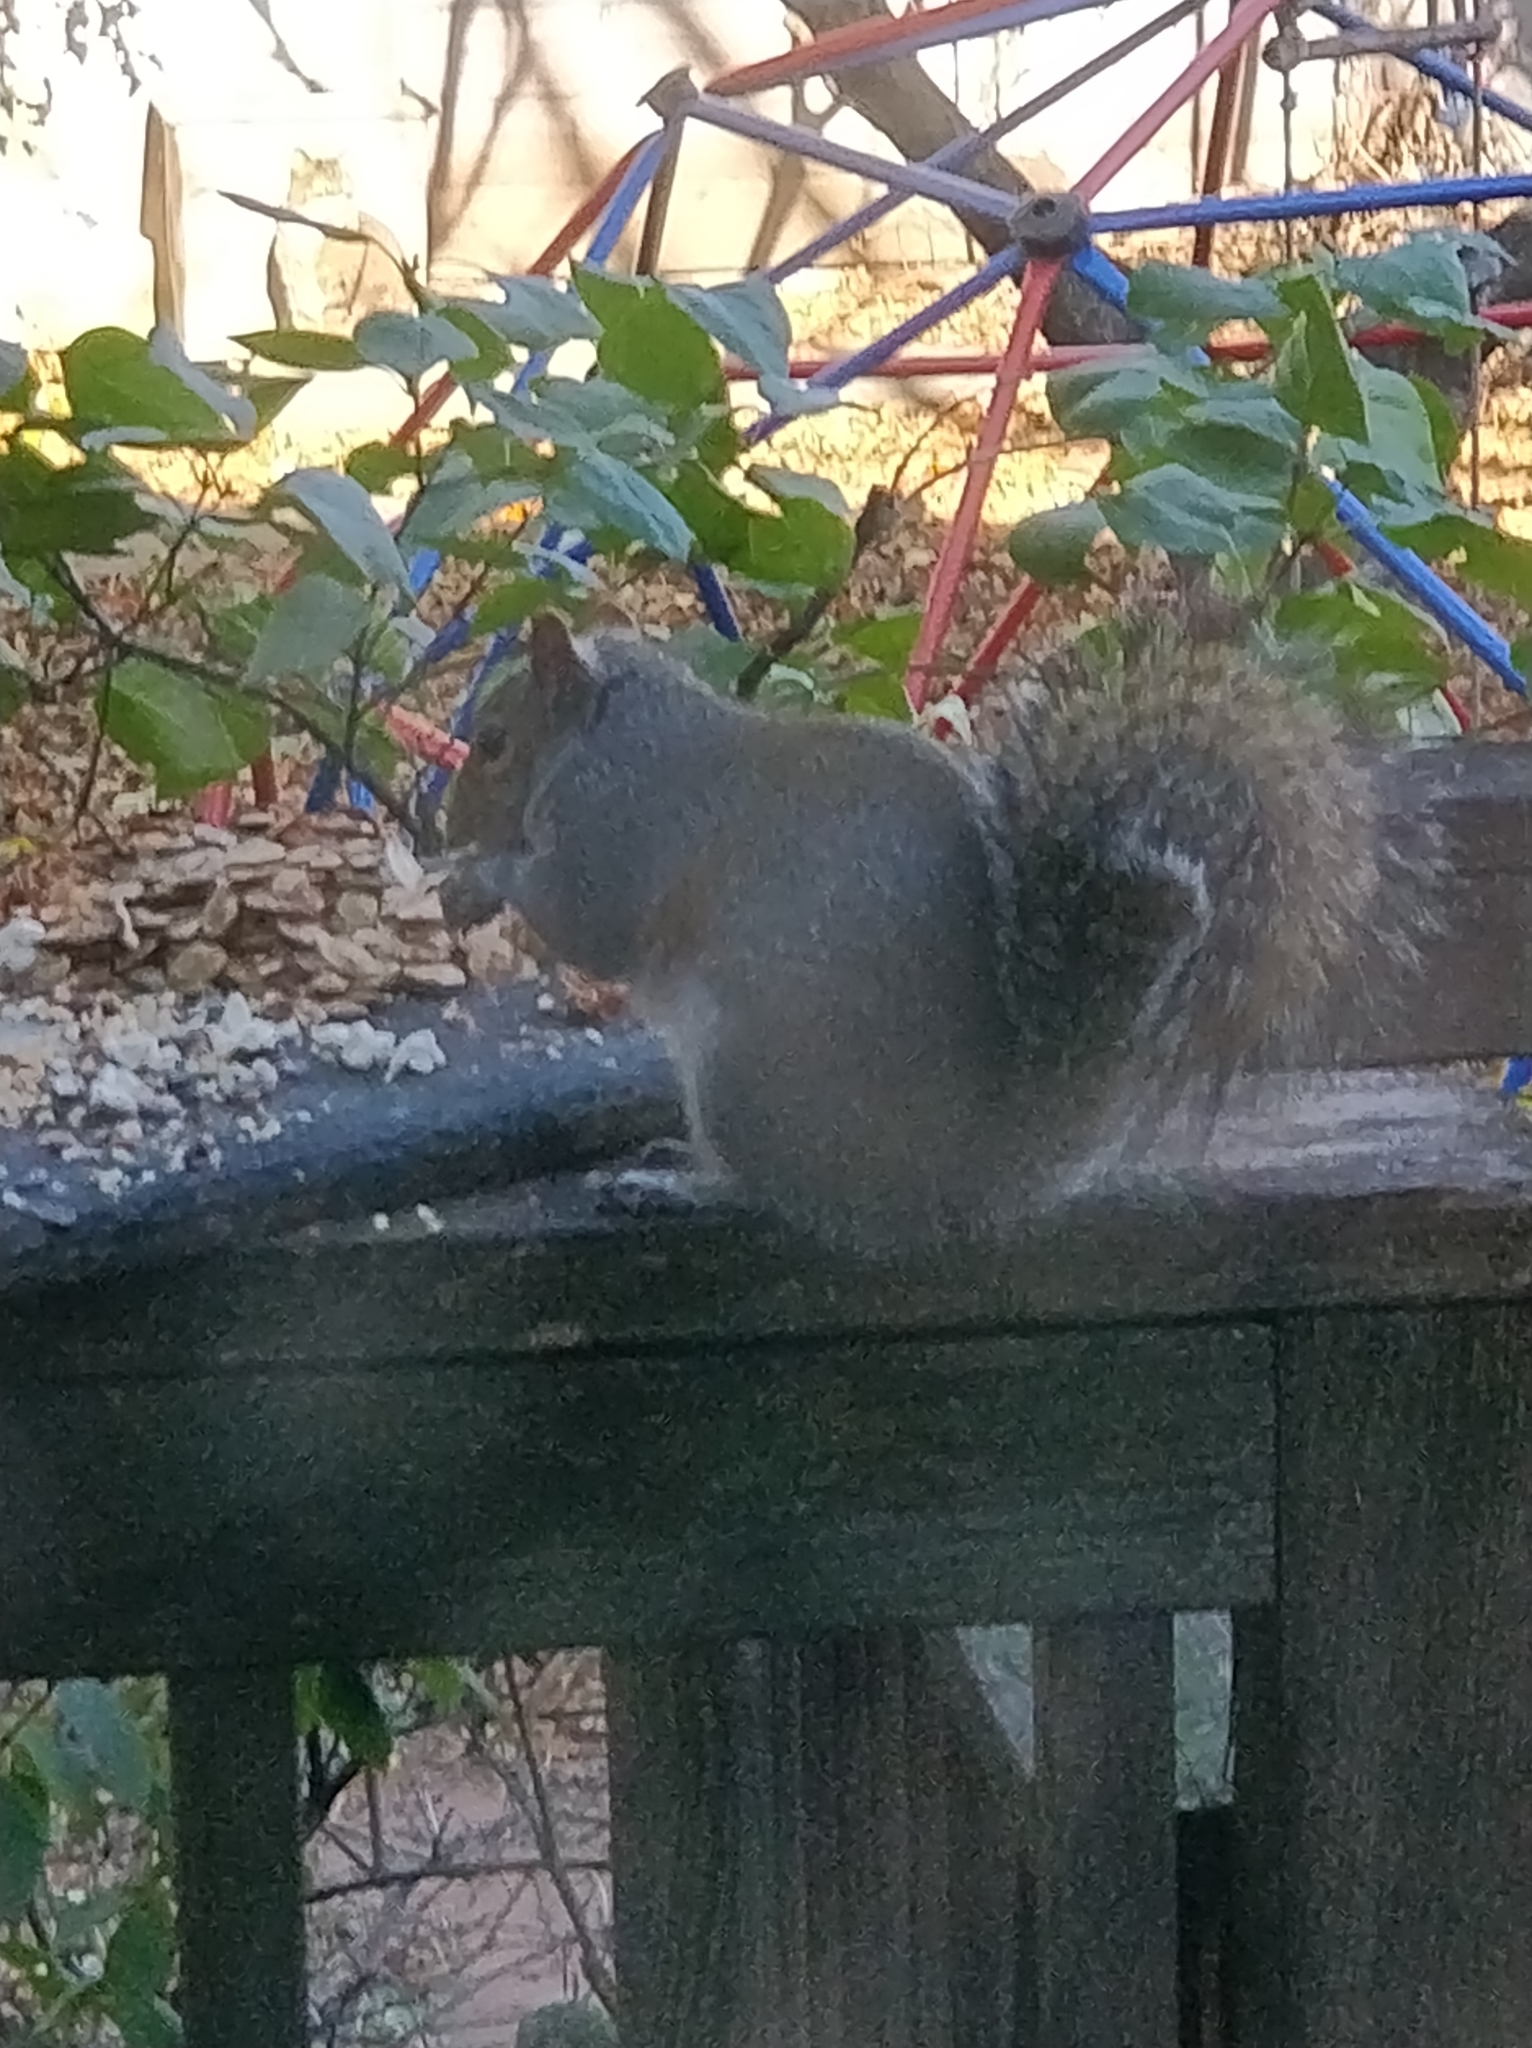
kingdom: Animalia
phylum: Chordata
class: Mammalia
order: Rodentia
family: Sciuridae
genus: Sciurus
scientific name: Sciurus carolinensis
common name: Eastern gray squirrel
